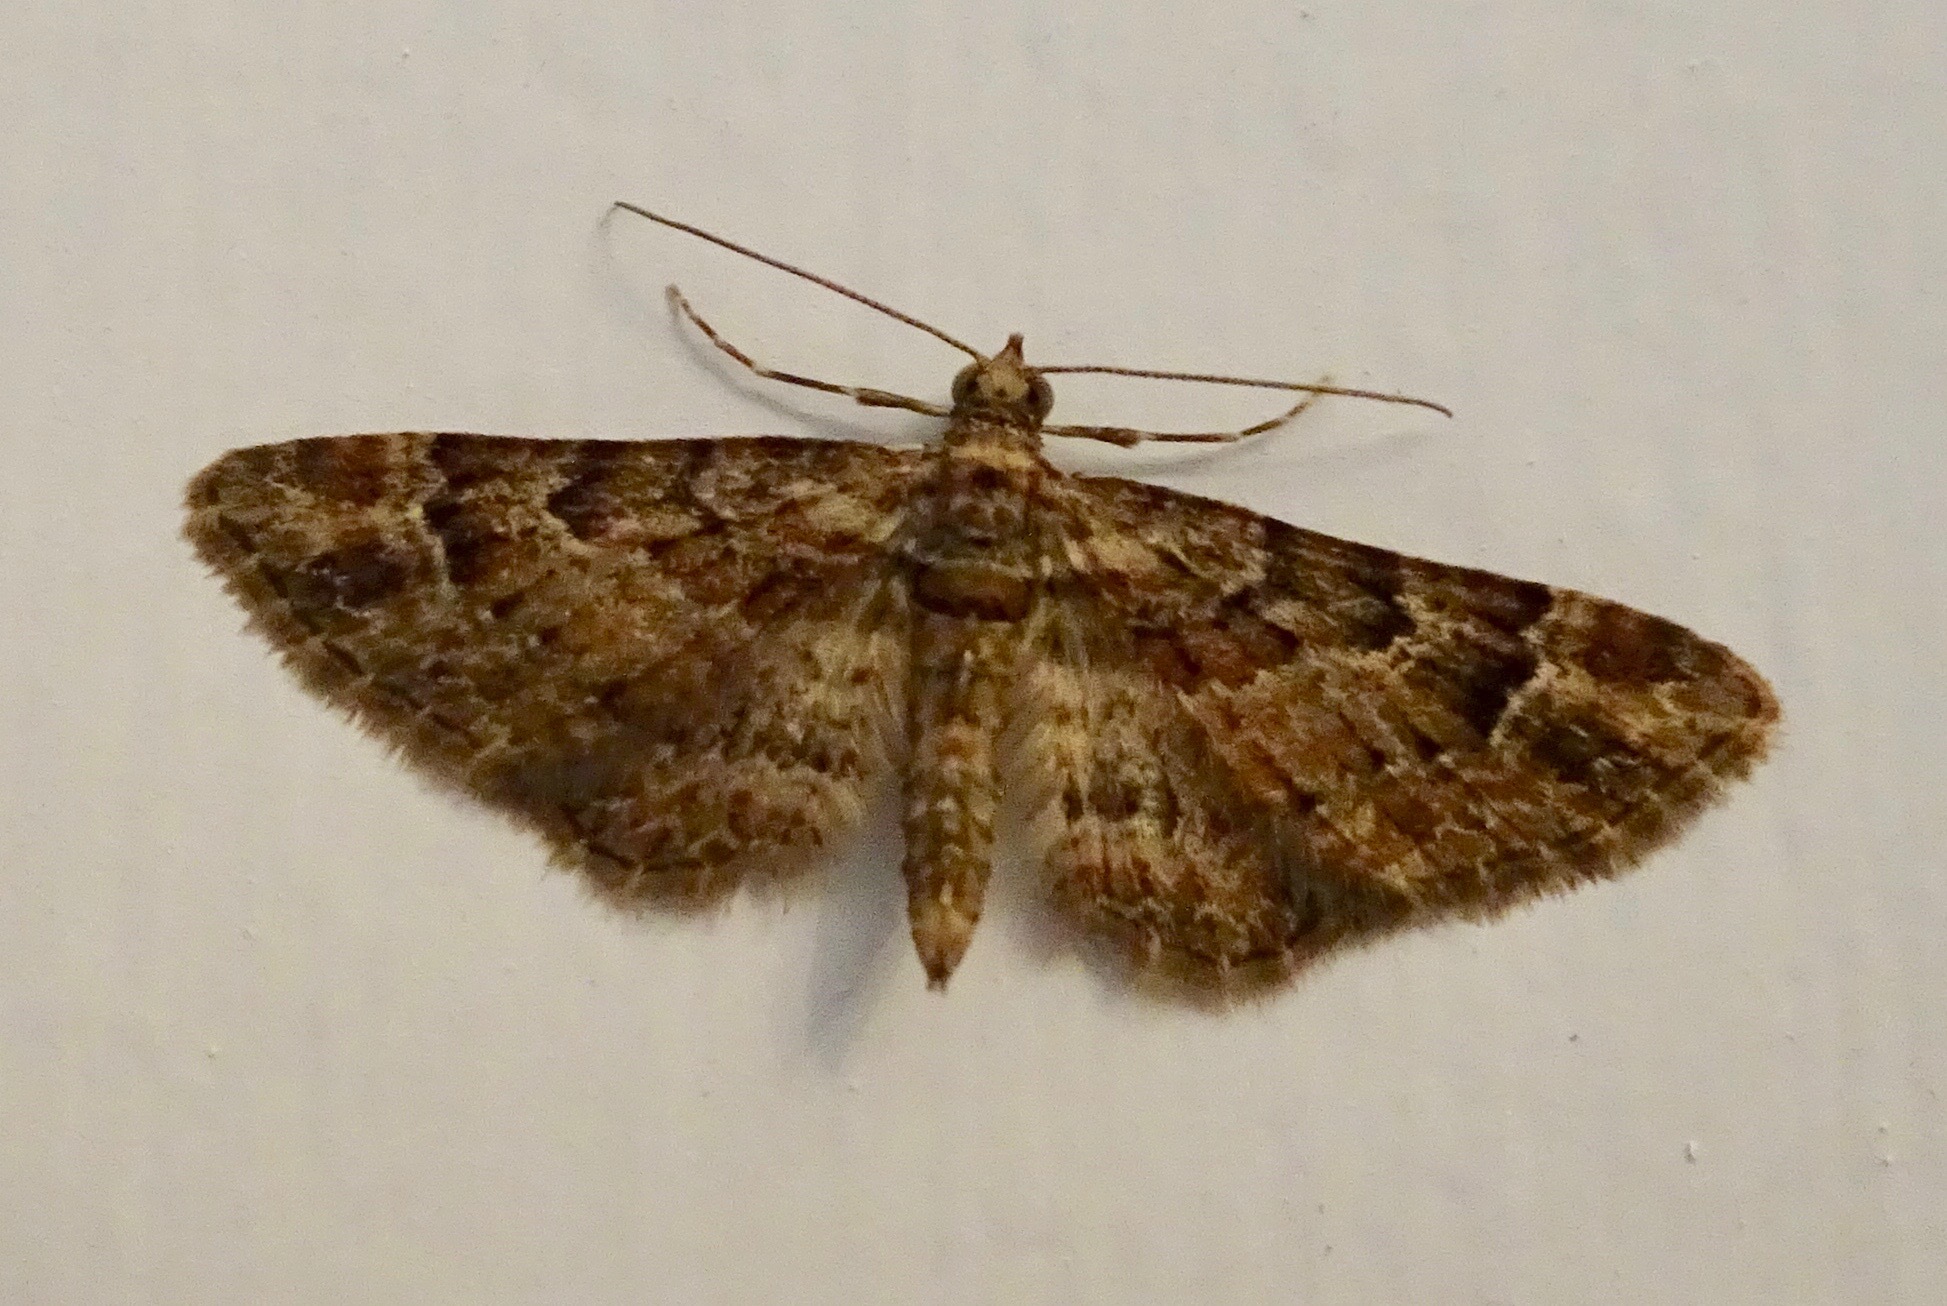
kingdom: Animalia
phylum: Arthropoda
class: Insecta
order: Lepidoptera
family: Geometridae
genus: Gymnoscelis
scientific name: Gymnoscelis rufifasciata
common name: Double-striped pug
